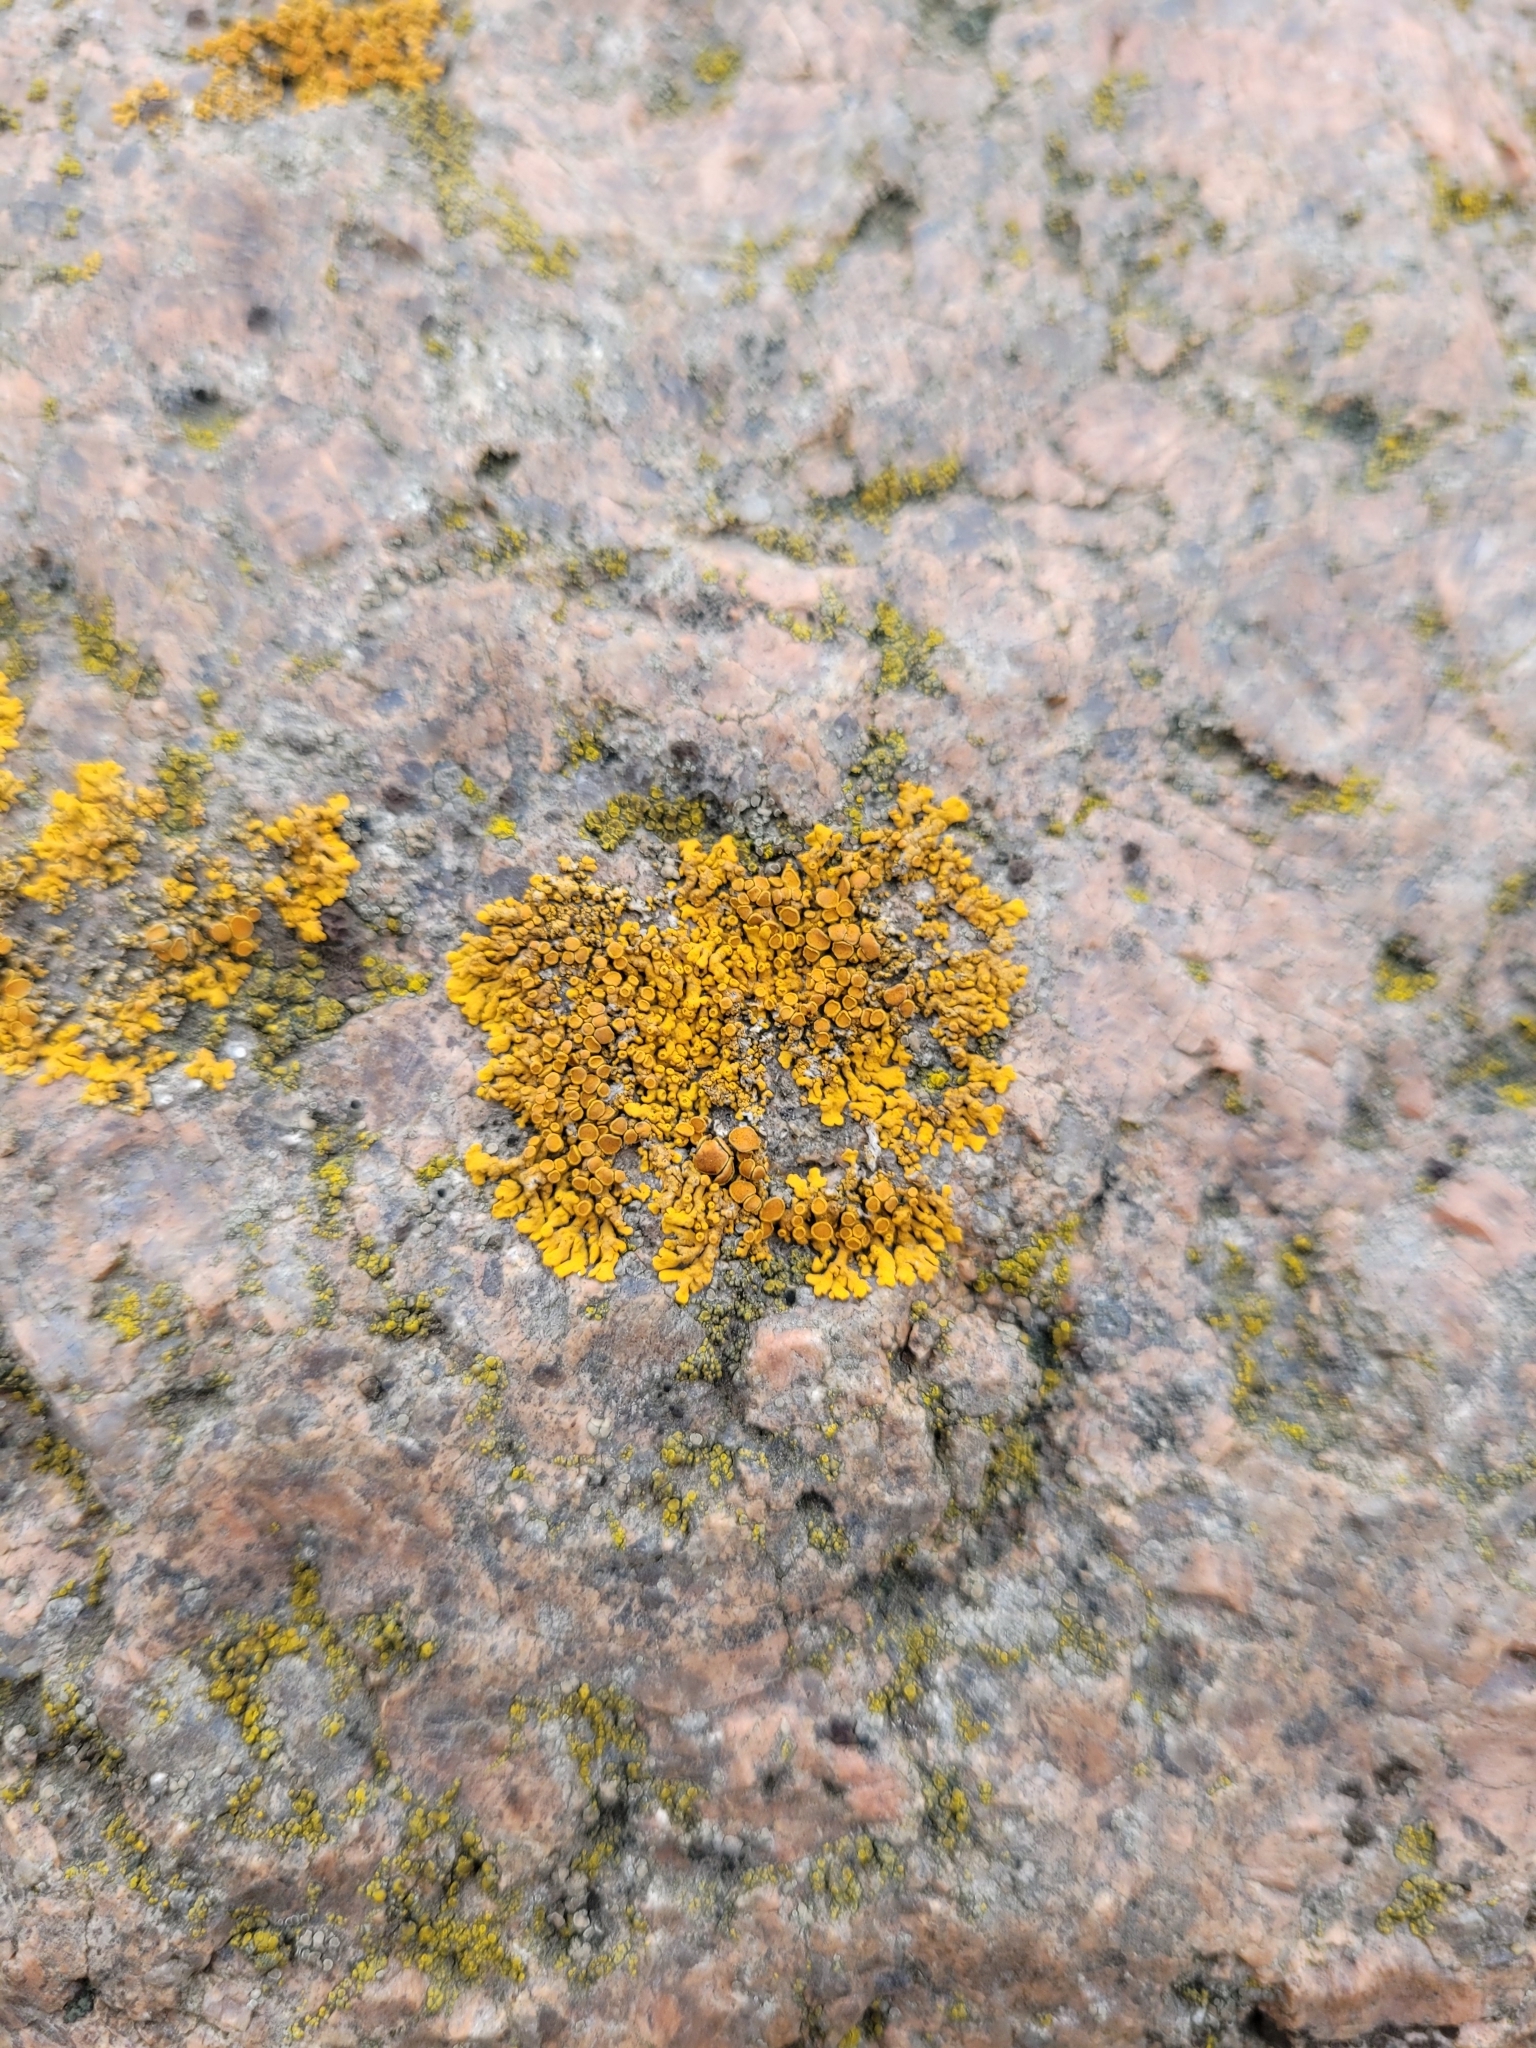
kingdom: Fungi
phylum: Ascomycota
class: Lecanoromycetes
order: Teloschistales
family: Teloschistaceae
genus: Xanthoria
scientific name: Xanthoria elegans
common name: Elegant sunburst lichen
